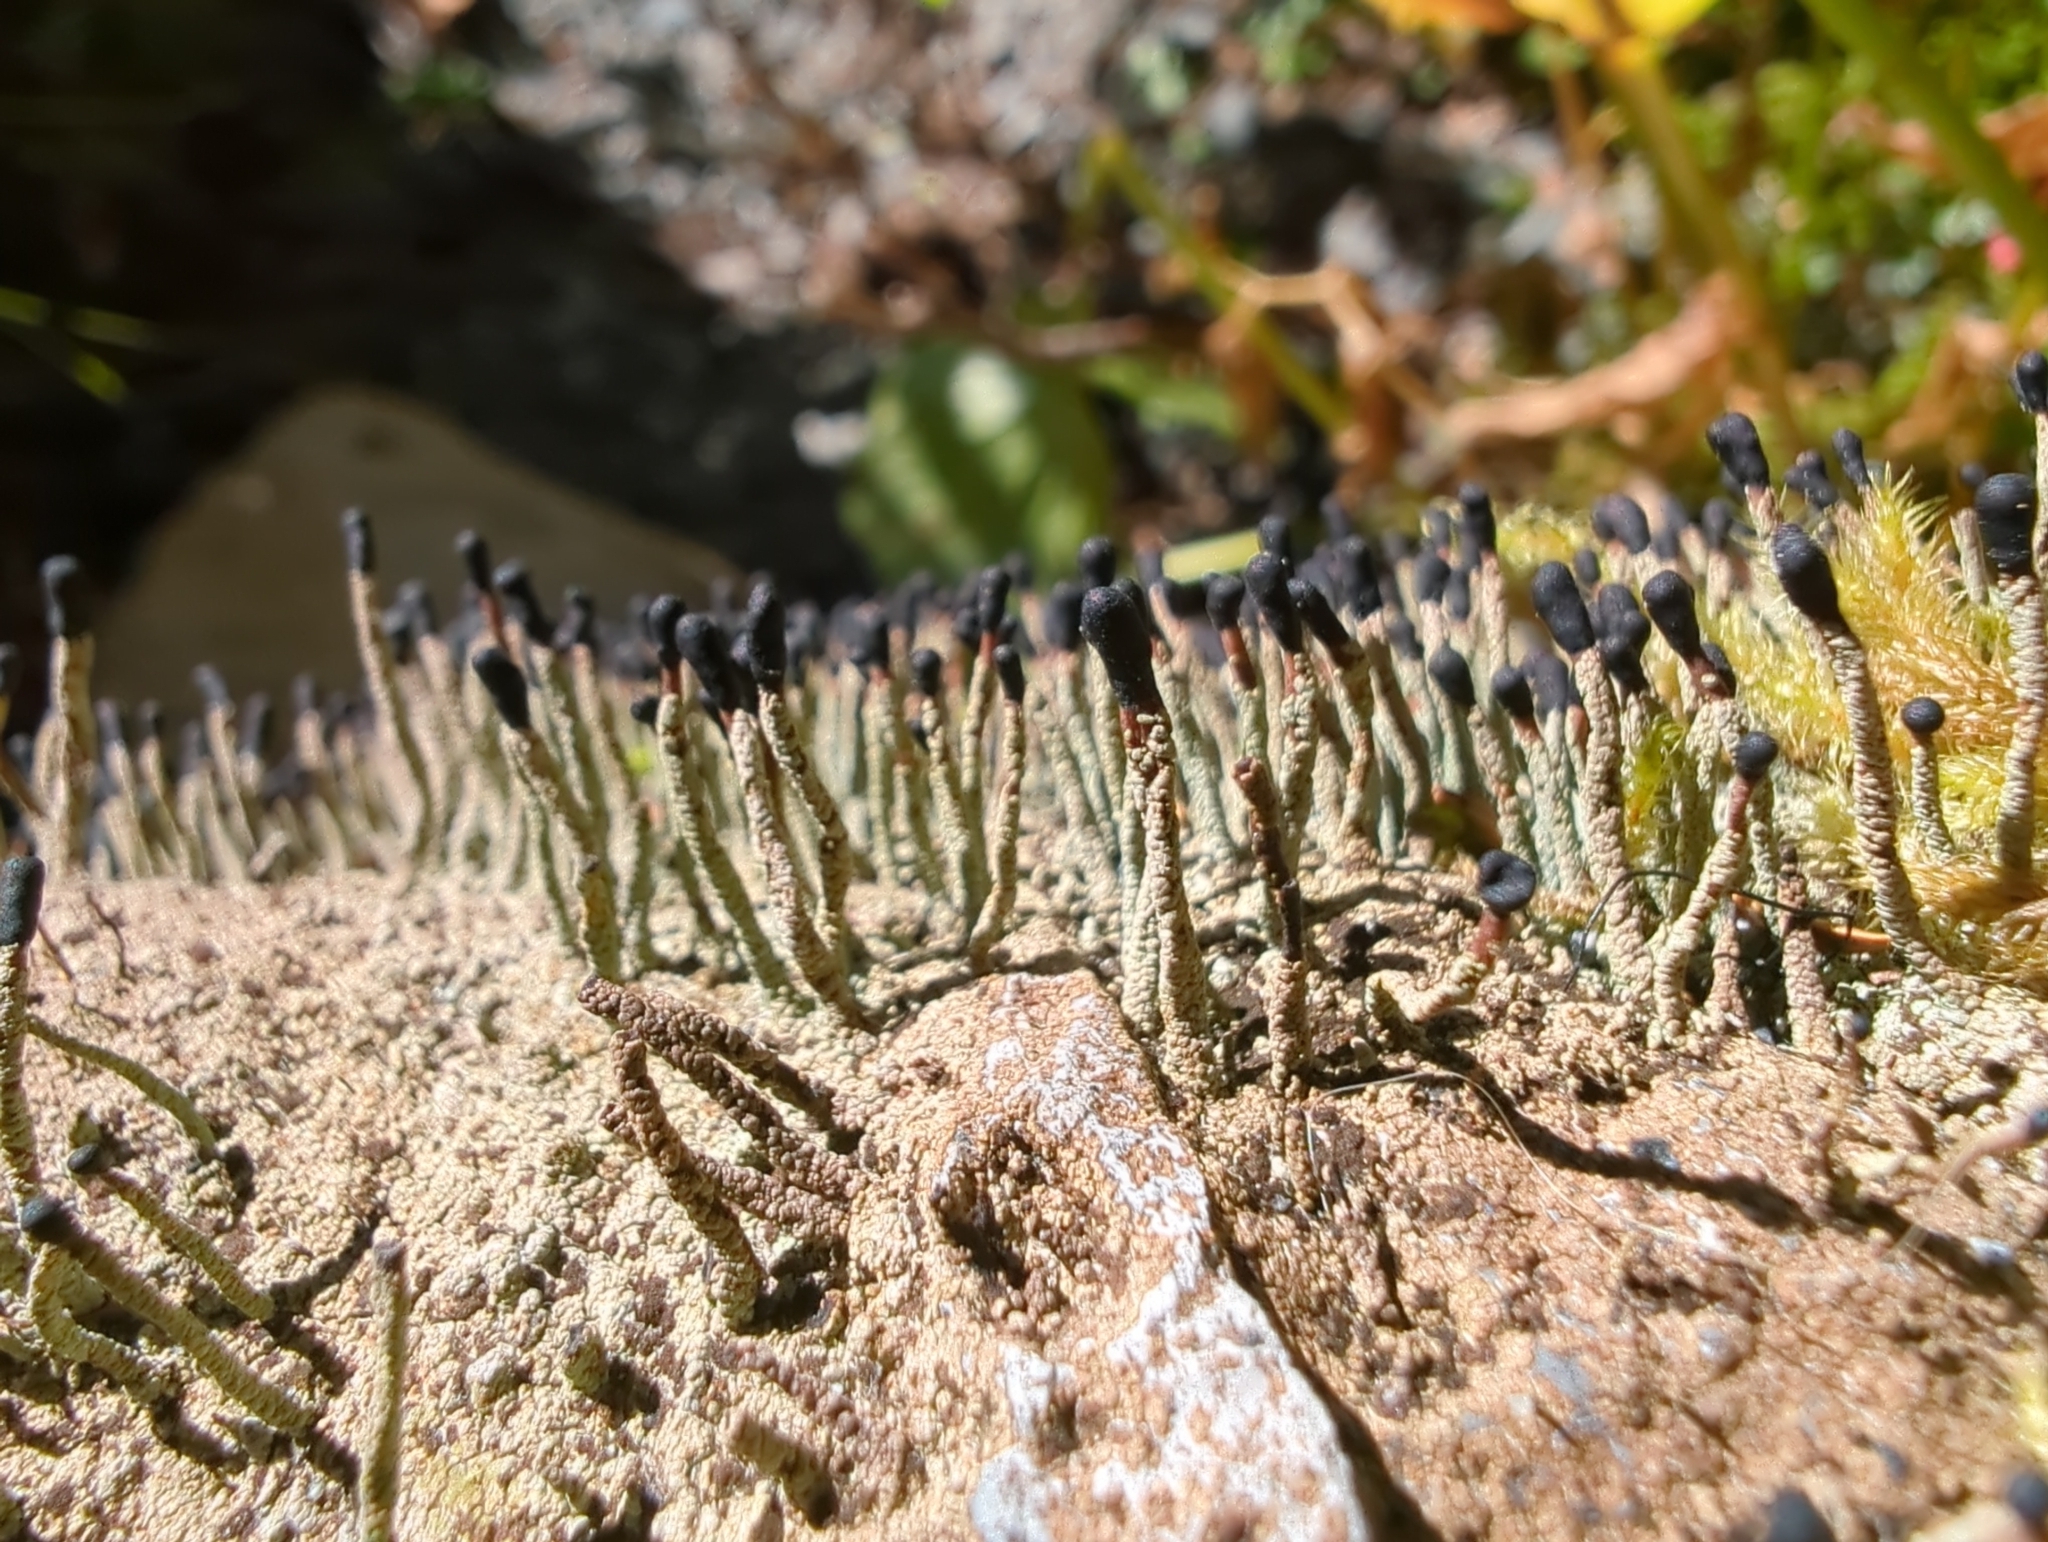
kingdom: Fungi
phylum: Ascomycota
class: Lecanoromycetes
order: Lecanorales
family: Cladoniaceae
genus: Pilophorus
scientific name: Pilophorus clavatus
